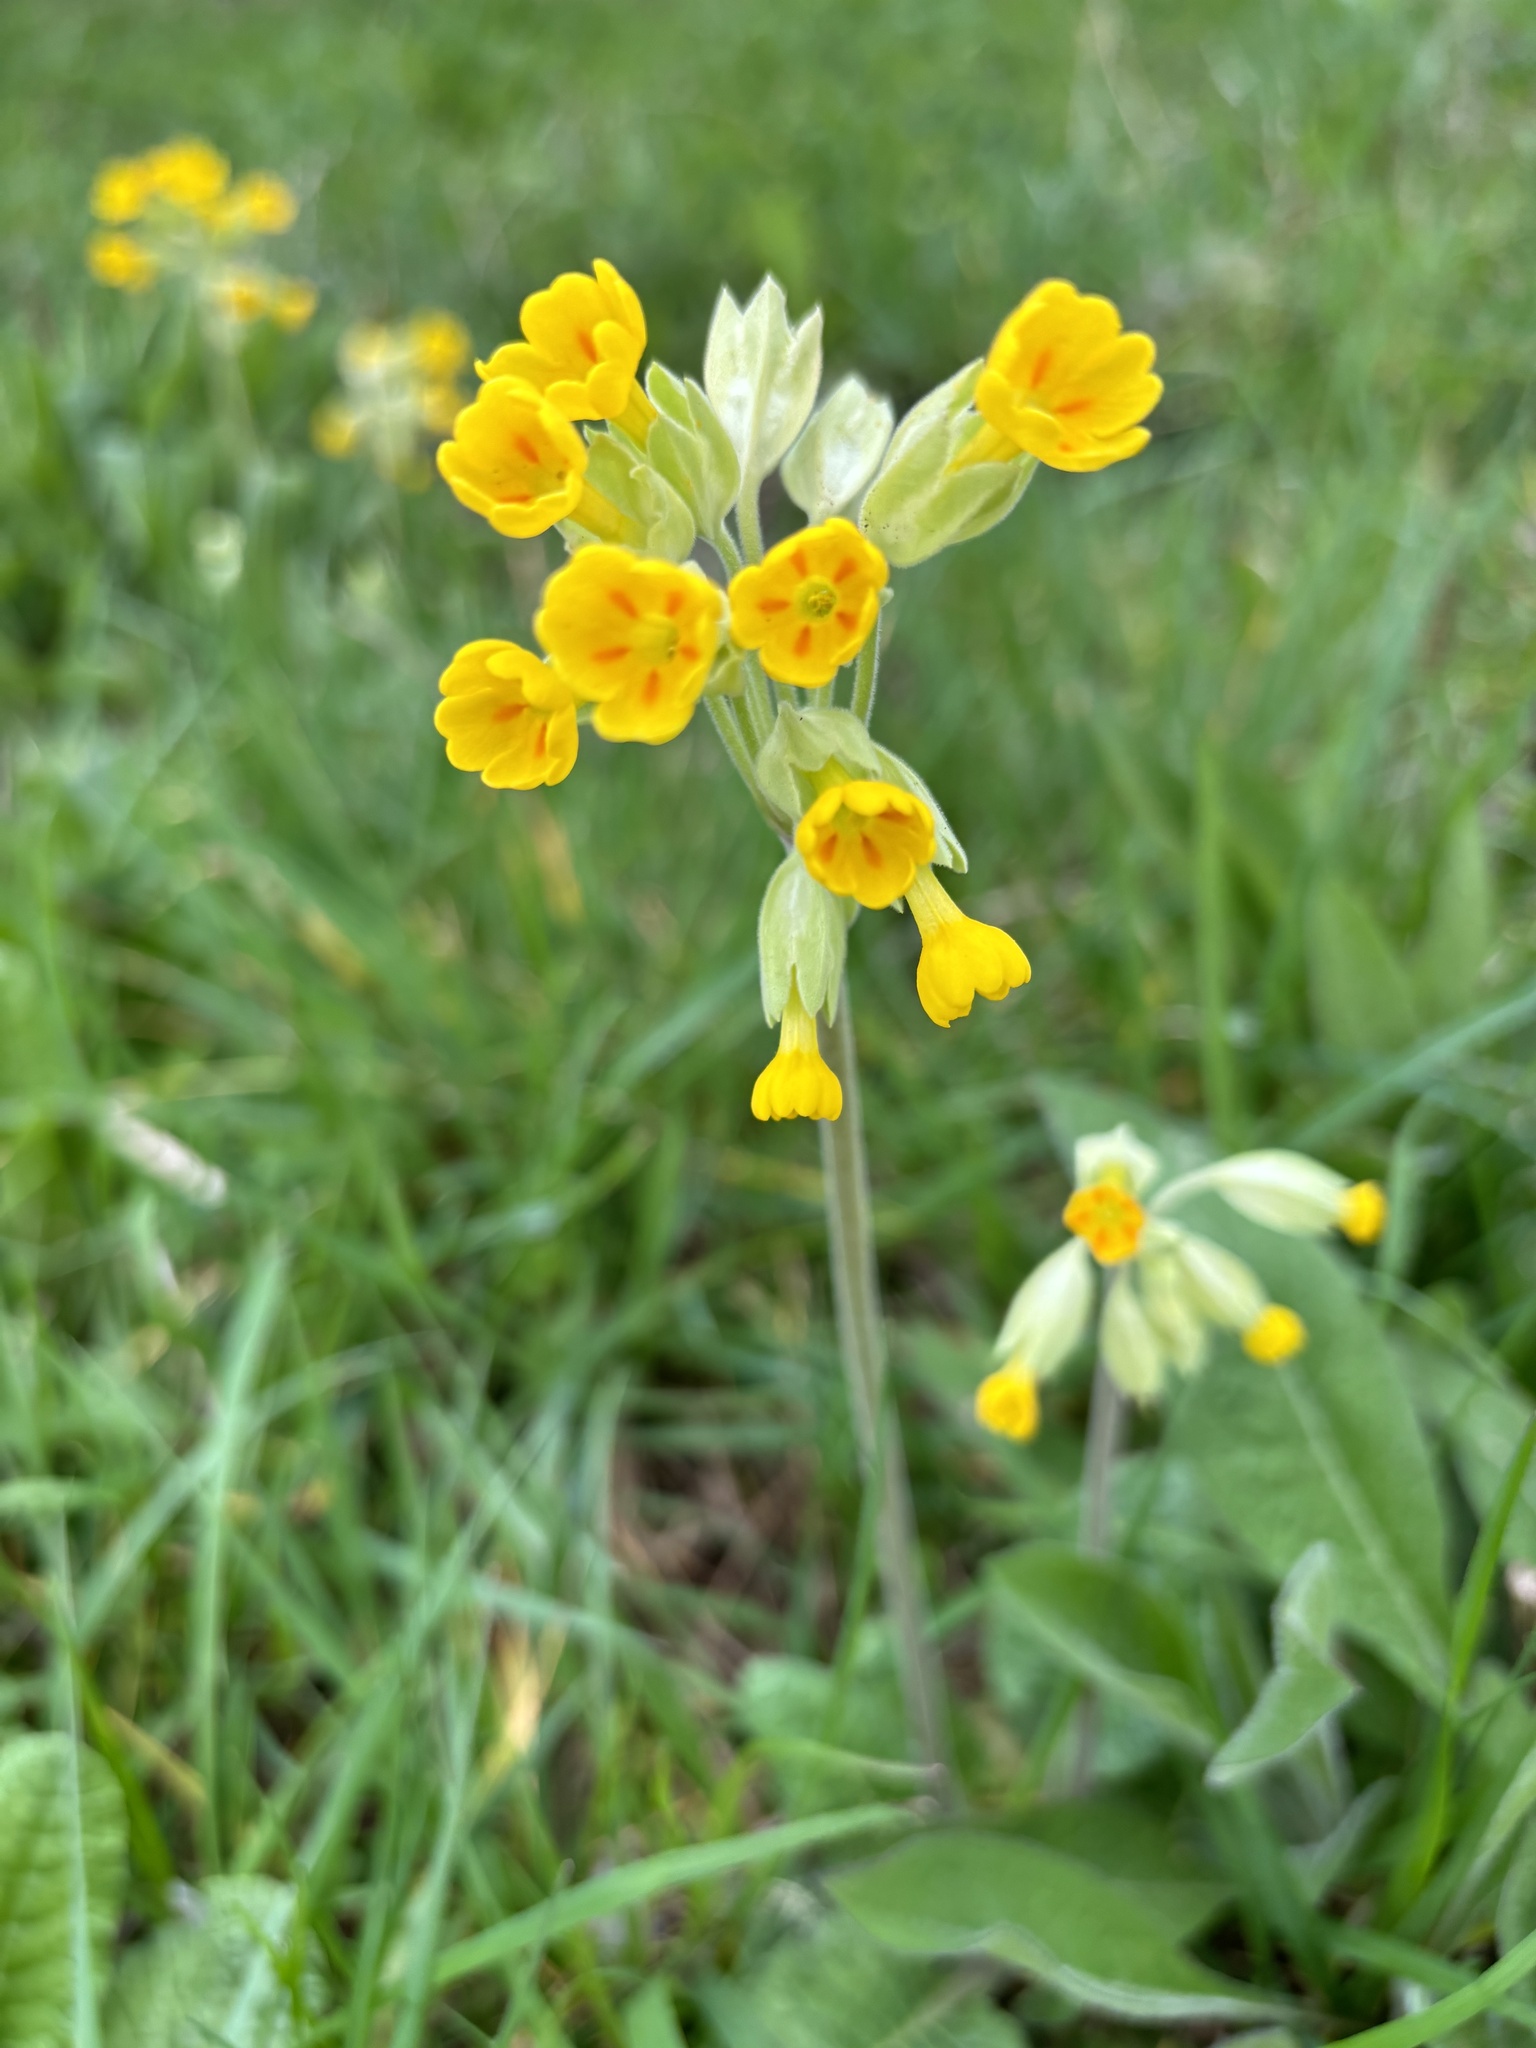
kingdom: Plantae
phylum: Tracheophyta
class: Magnoliopsida
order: Ericales
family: Primulaceae
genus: Primula
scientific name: Primula veris
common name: Cowslip
